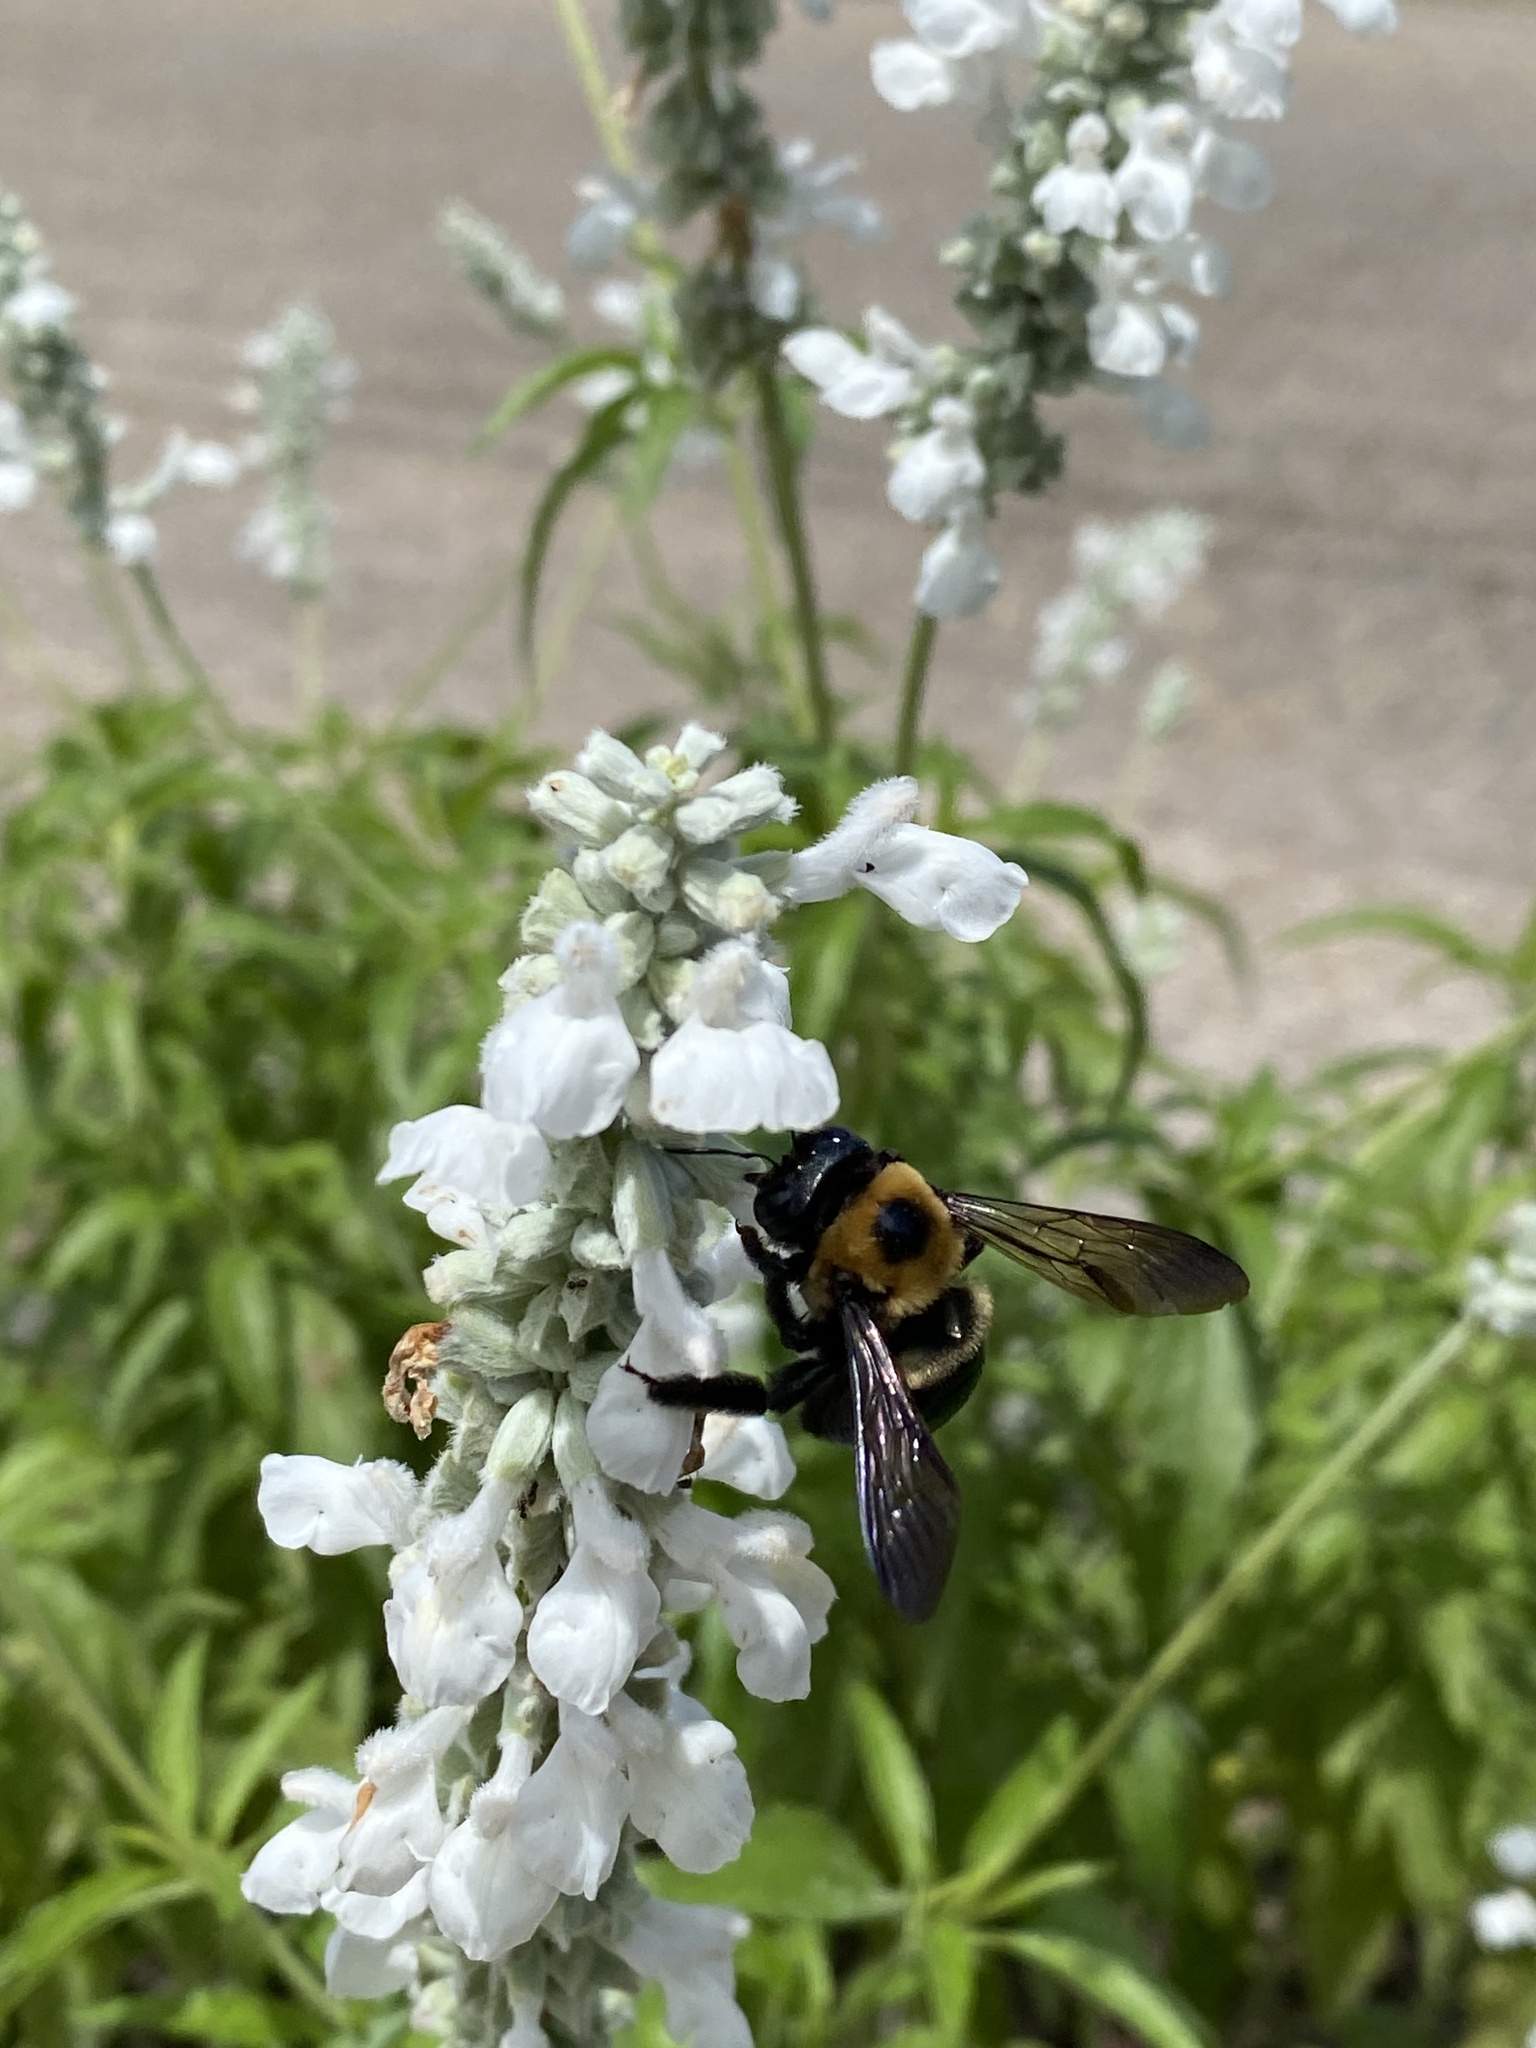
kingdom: Animalia
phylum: Arthropoda
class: Insecta
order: Hymenoptera
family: Apidae
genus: Xylocopa
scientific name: Xylocopa virginica
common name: Carpenter bee
